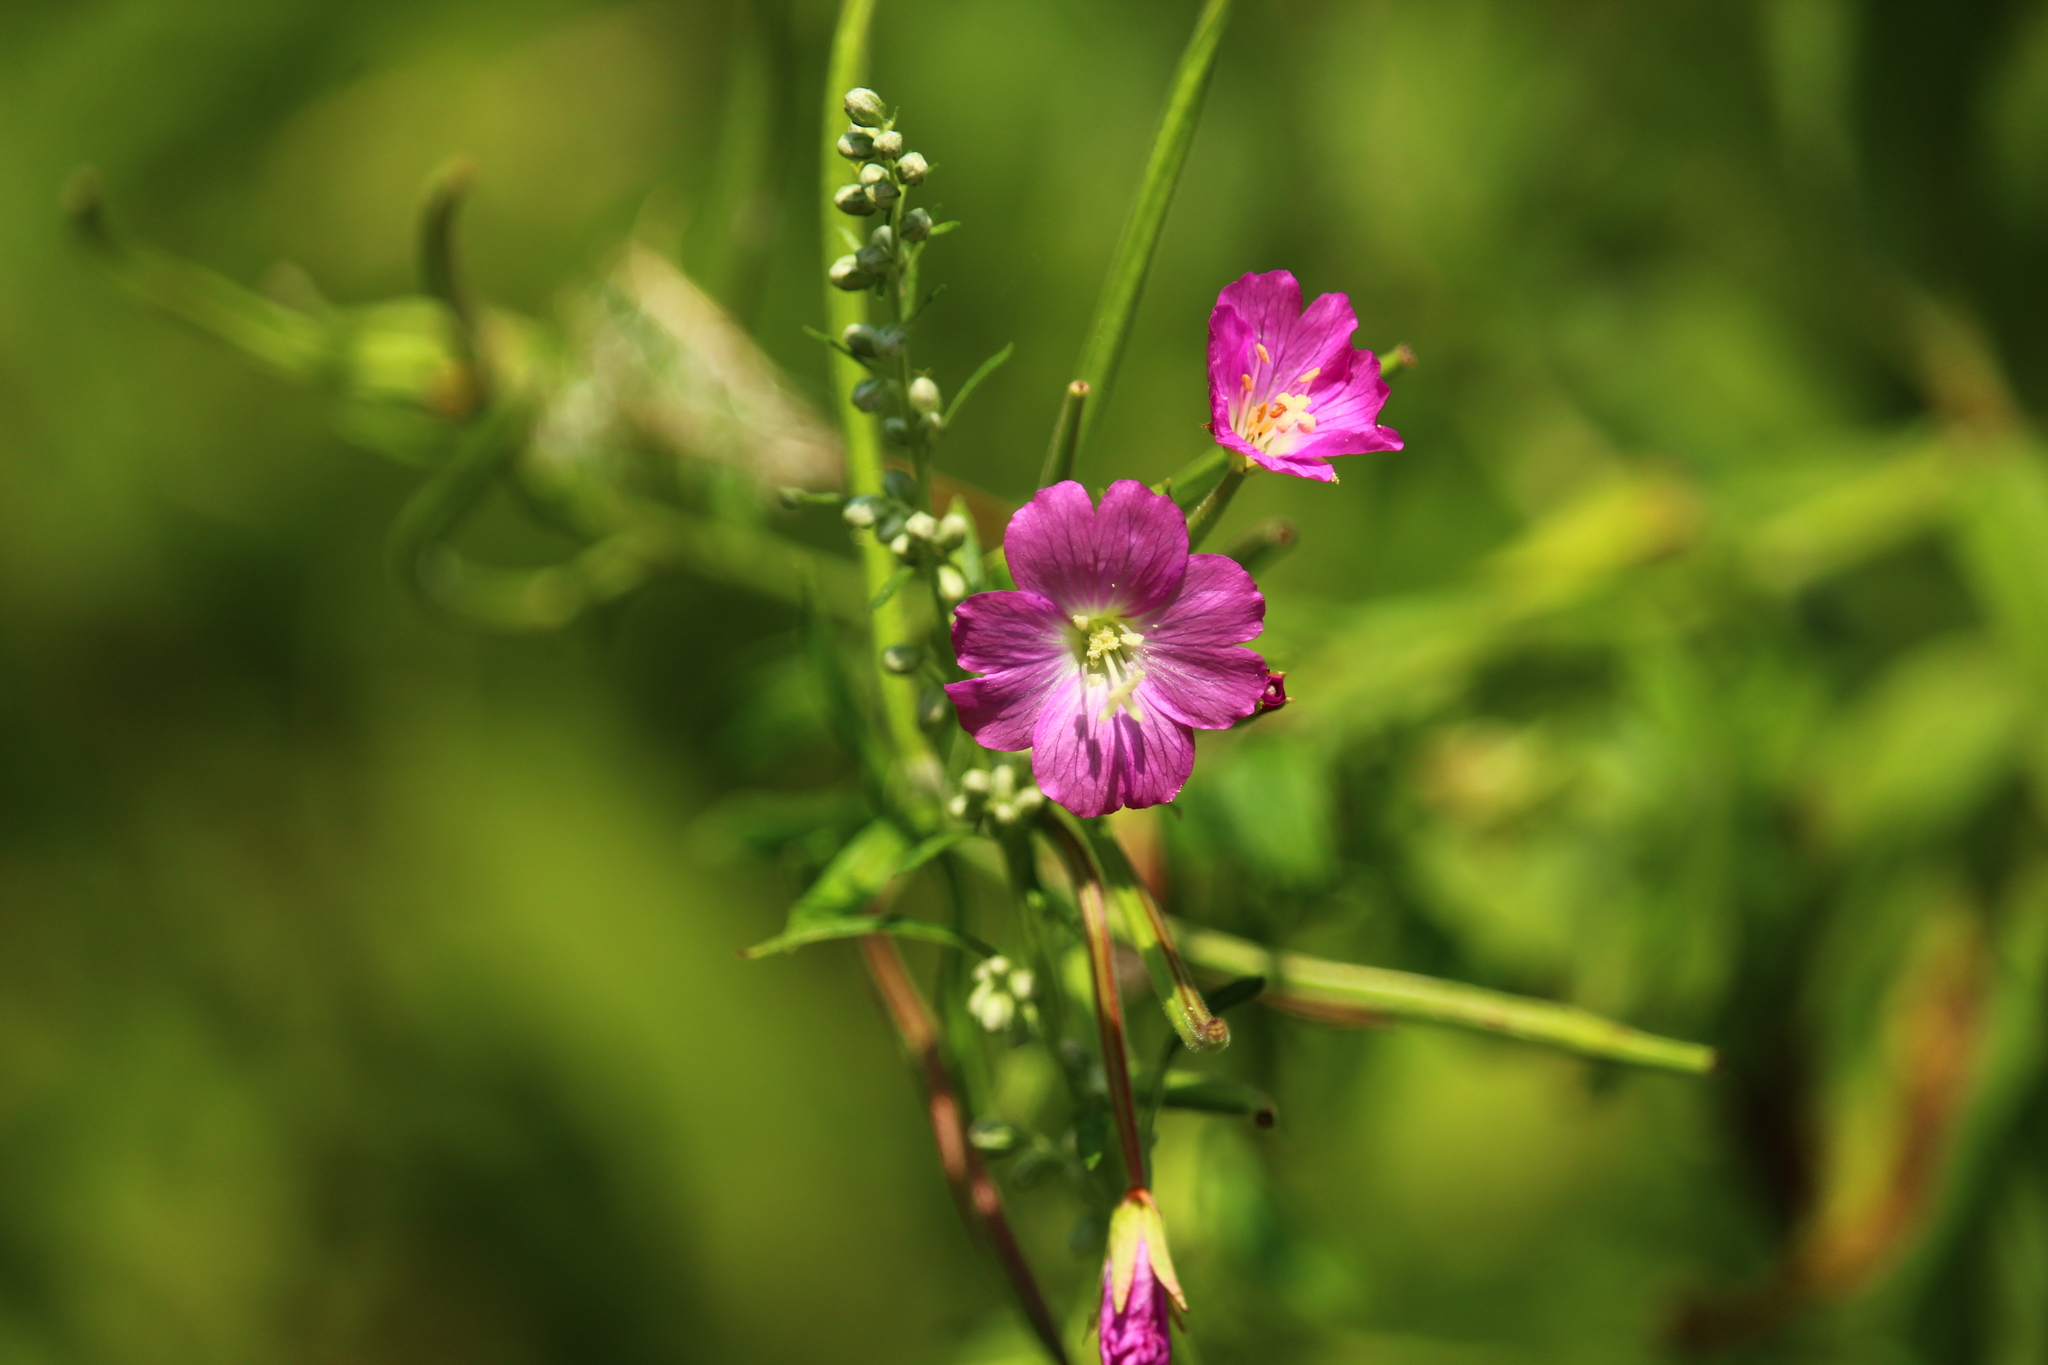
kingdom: Plantae
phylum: Tracheophyta
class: Magnoliopsida
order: Myrtales
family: Onagraceae
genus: Epilobium
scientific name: Epilobium hirsutum
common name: Great willowherb
